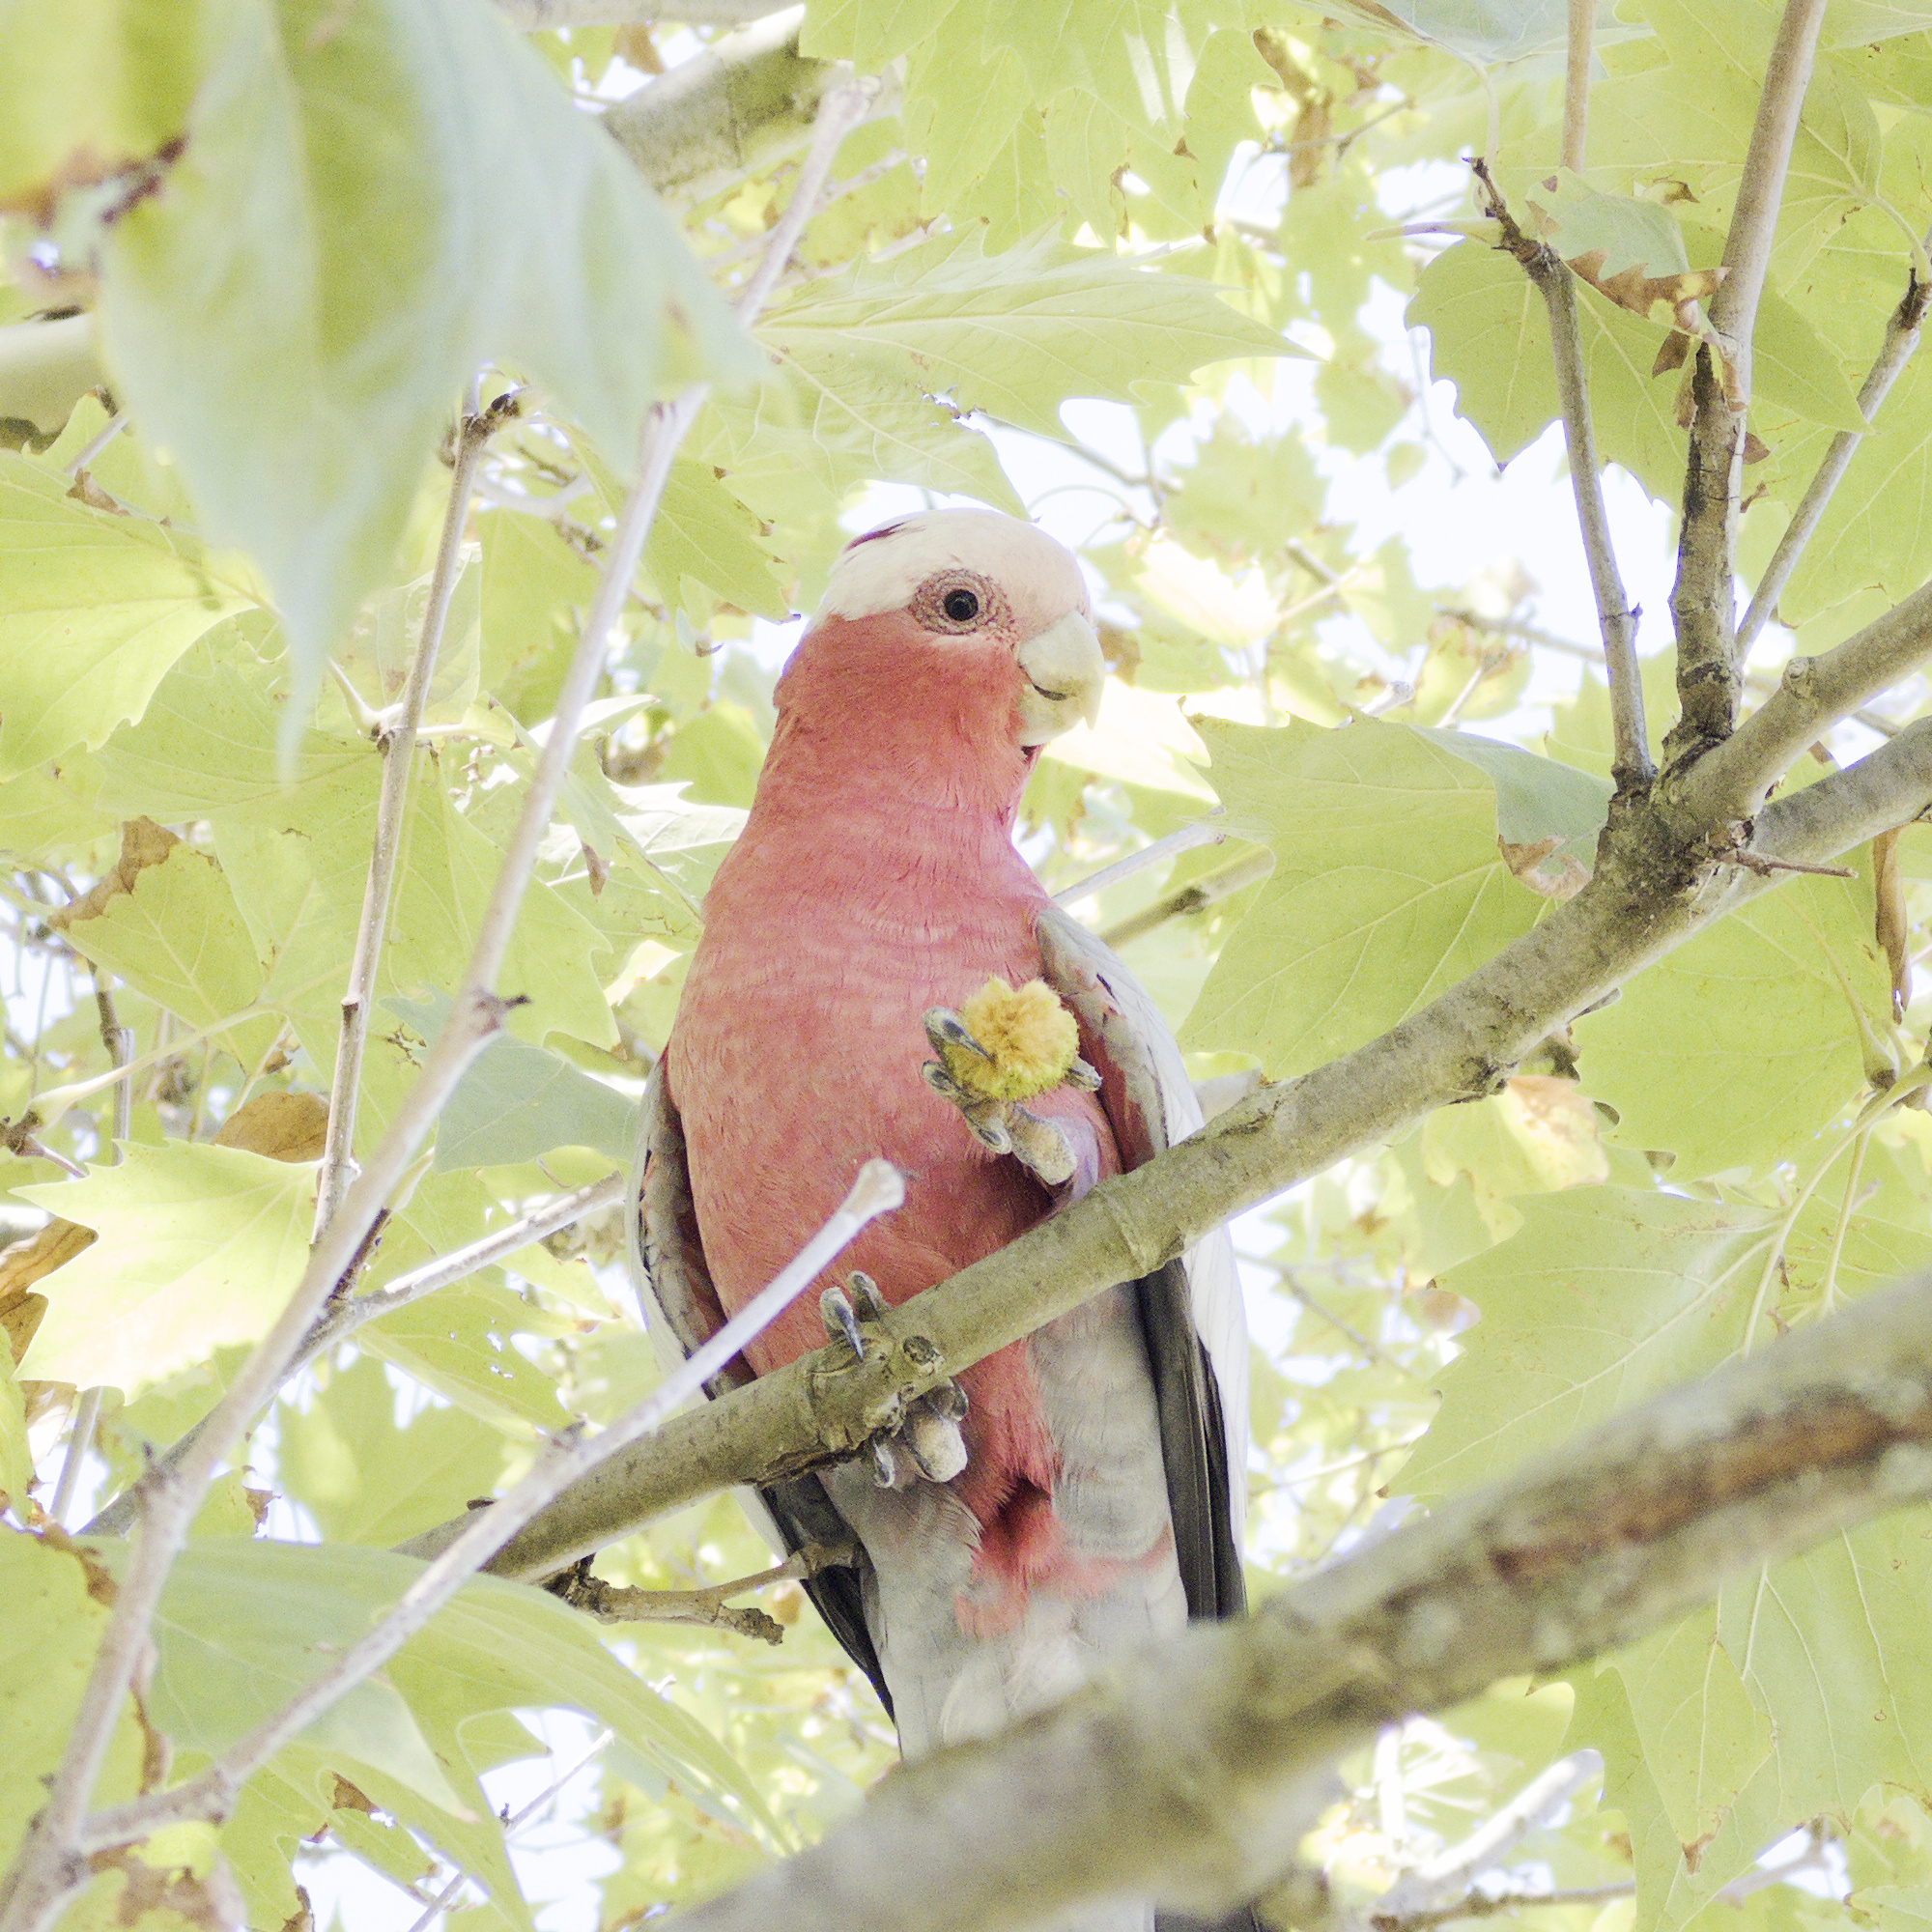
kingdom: Animalia
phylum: Chordata
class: Aves
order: Psittaciformes
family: Psittacidae
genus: Eolophus
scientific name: Eolophus roseicapilla
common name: Galah
